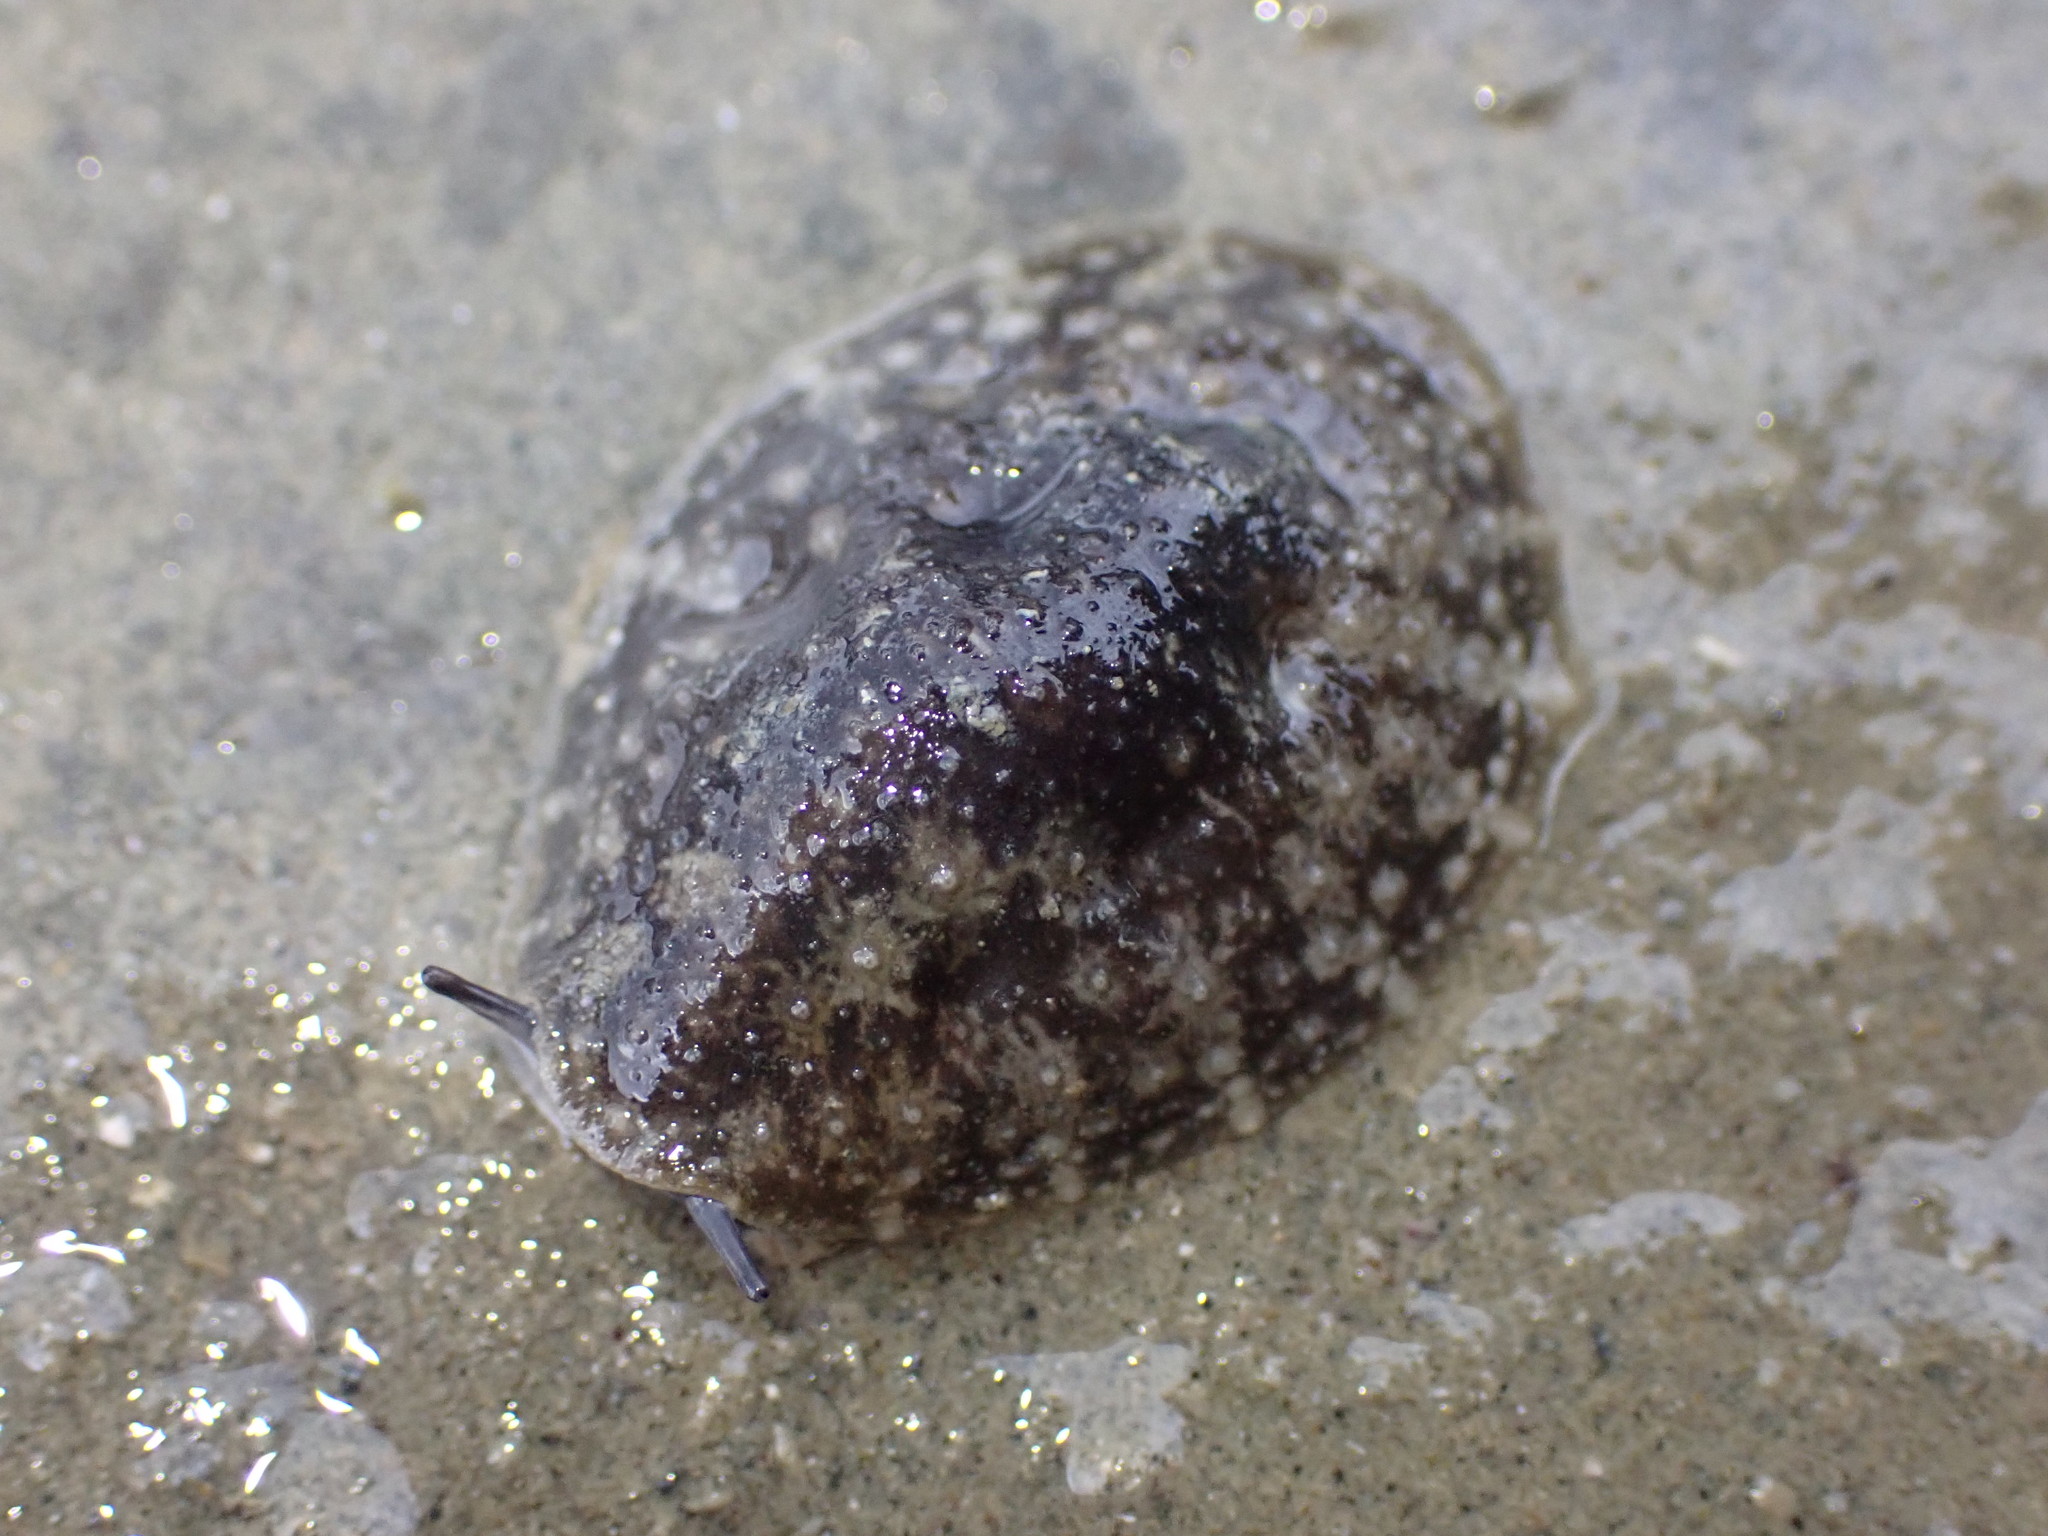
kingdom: Animalia
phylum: Mollusca
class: Gastropoda
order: Systellommatophora
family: Onchidiidae
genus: Onchidella
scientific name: Onchidella nigricans
